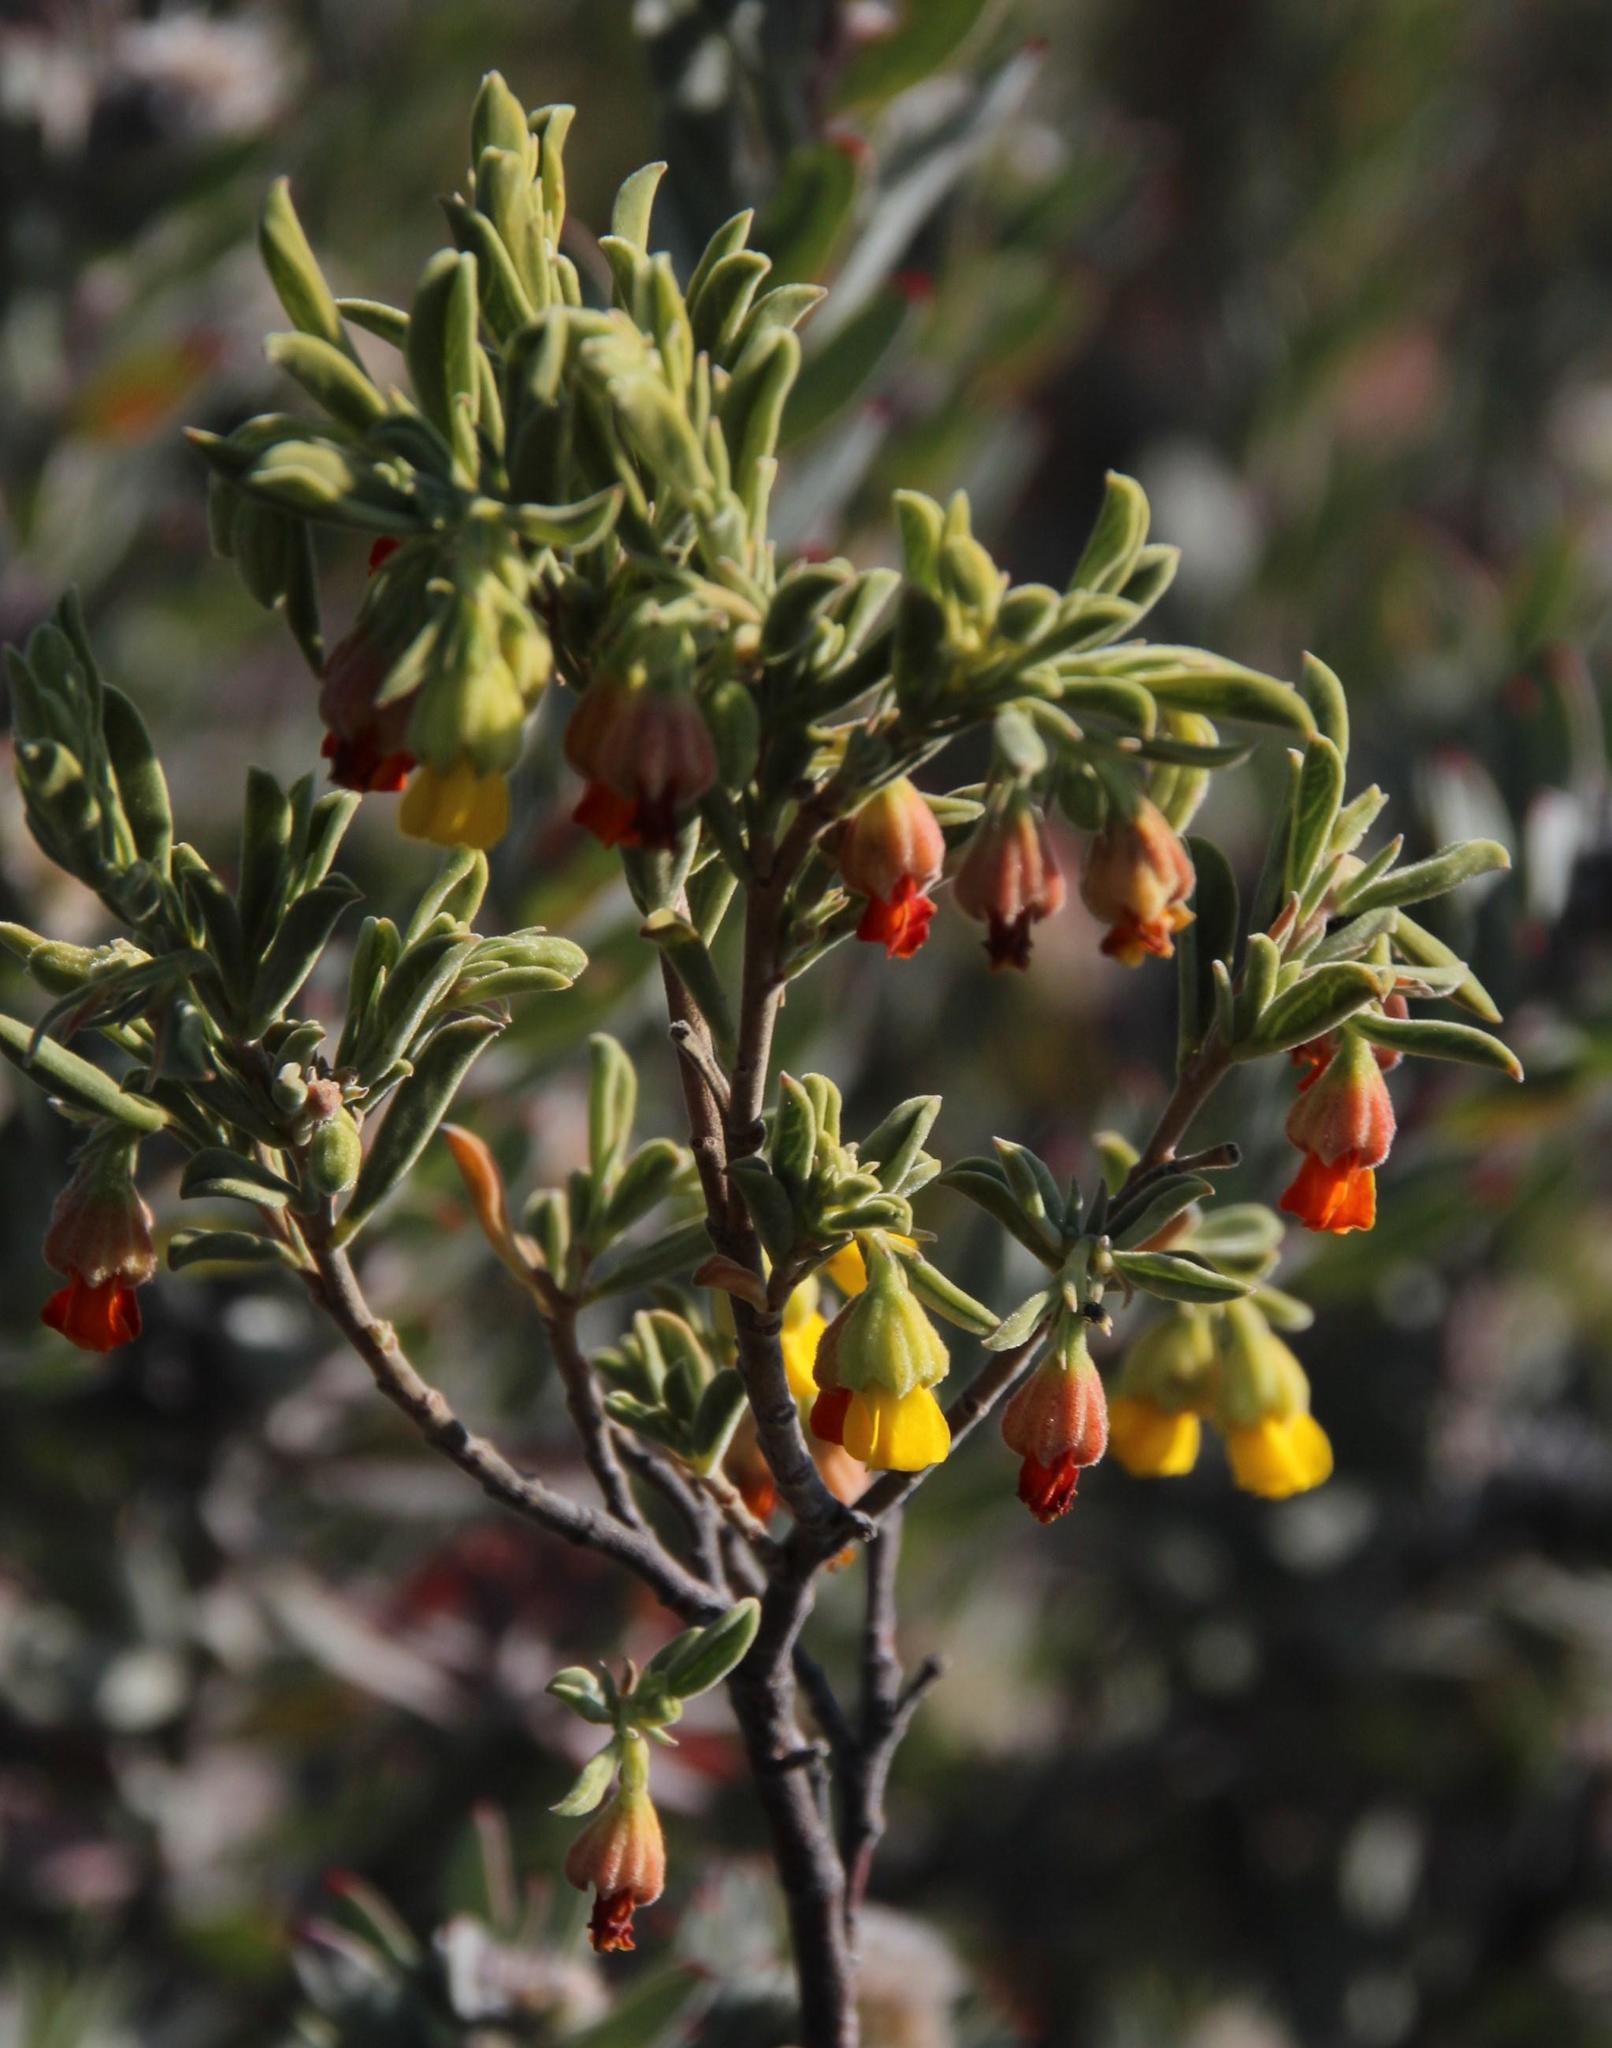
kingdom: Plantae
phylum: Tracheophyta
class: Magnoliopsida
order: Malvales
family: Malvaceae
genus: Hermannia
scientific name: Hermannia odorata
